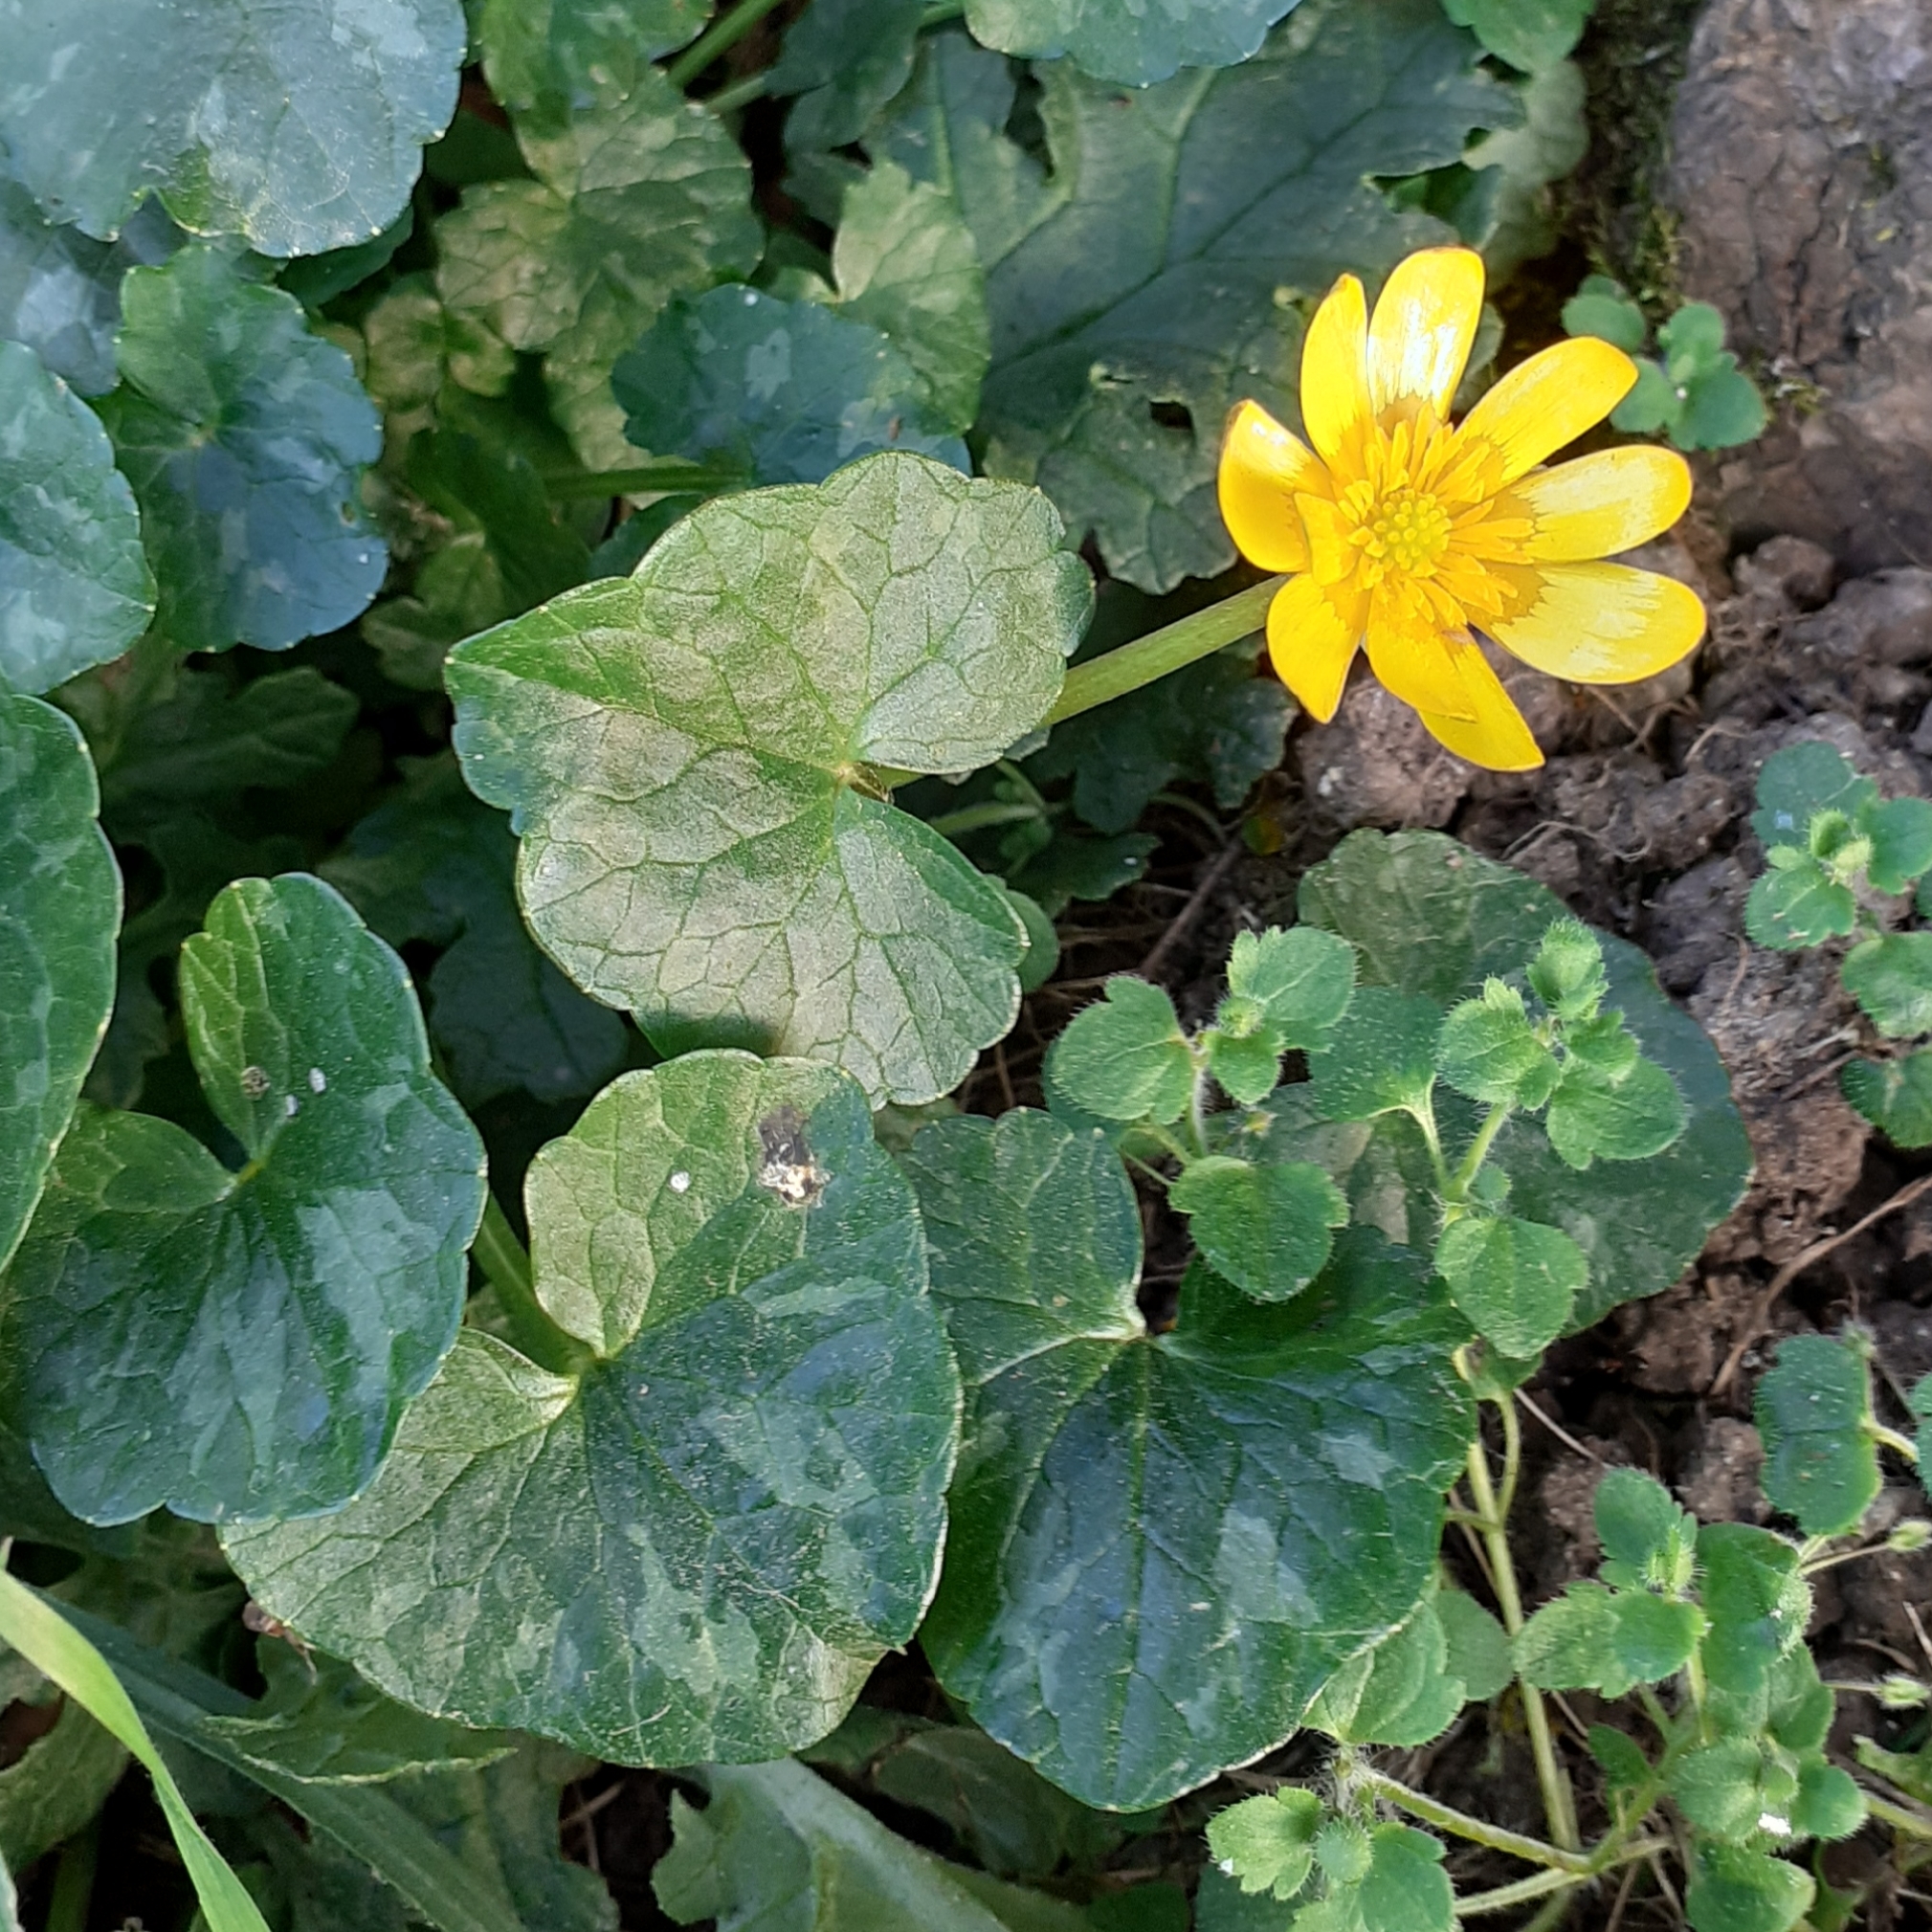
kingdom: Plantae
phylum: Tracheophyta
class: Magnoliopsida
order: Ranunculales
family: Ranunculaceae
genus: Ficaria
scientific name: Ficaria verna
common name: Lesser celandine
